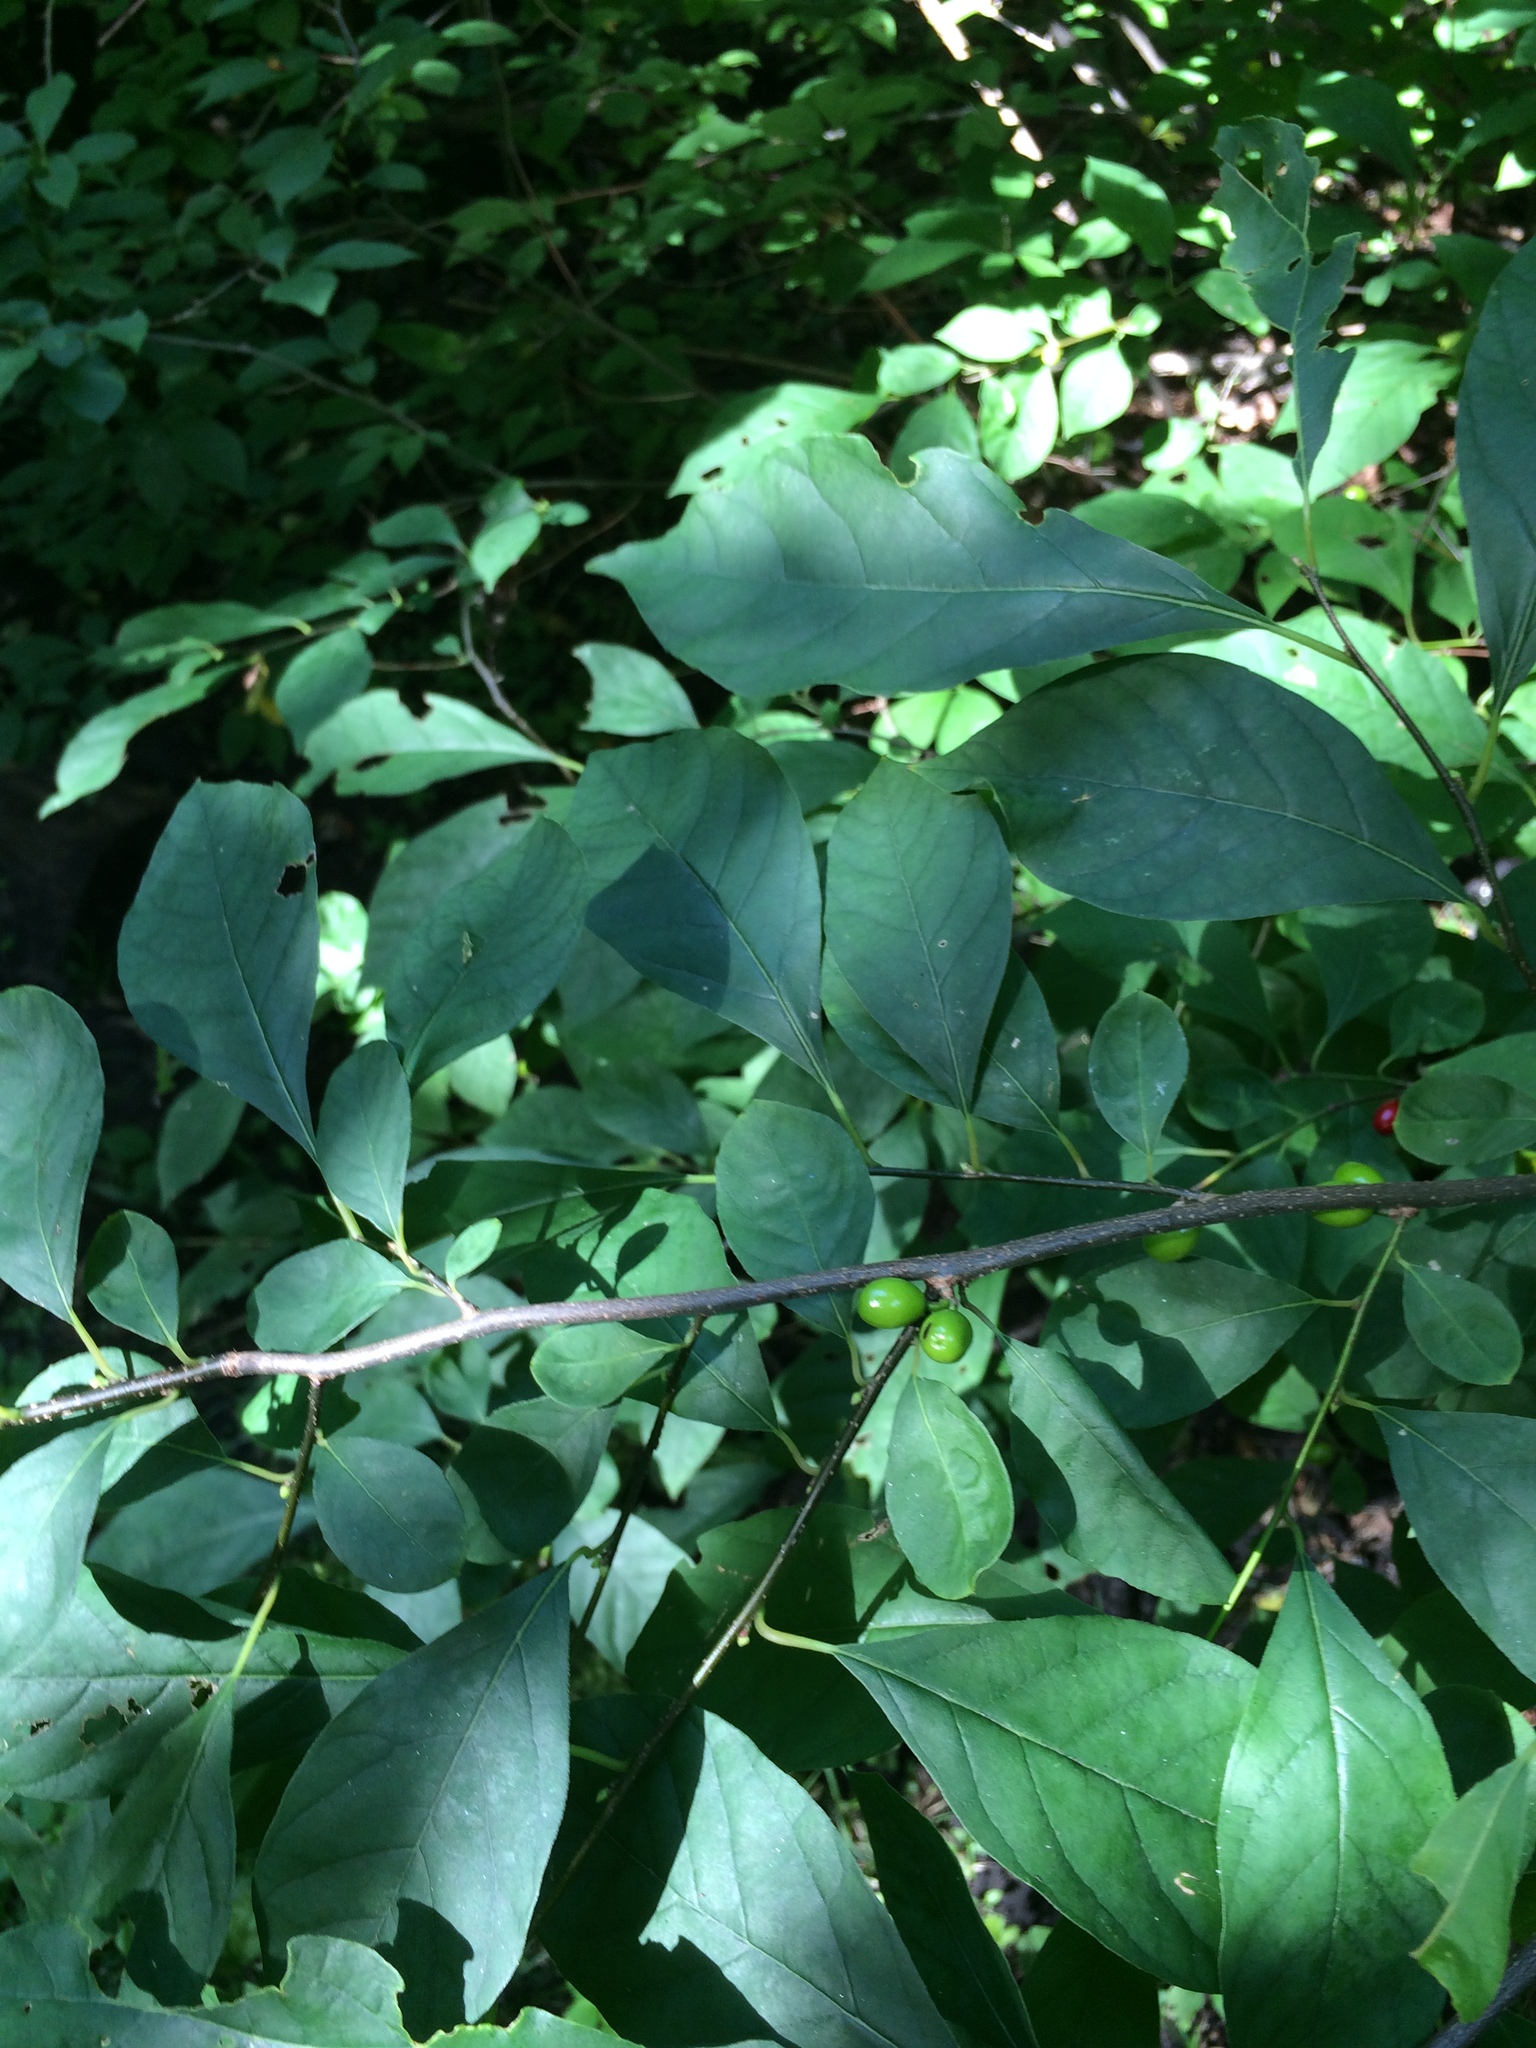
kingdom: Plantae
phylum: Tracheophyta
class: Magnoliopsida
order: Laurales
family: Lauraceae
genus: Lindera
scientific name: Lindera benzoin
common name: Spicebush
